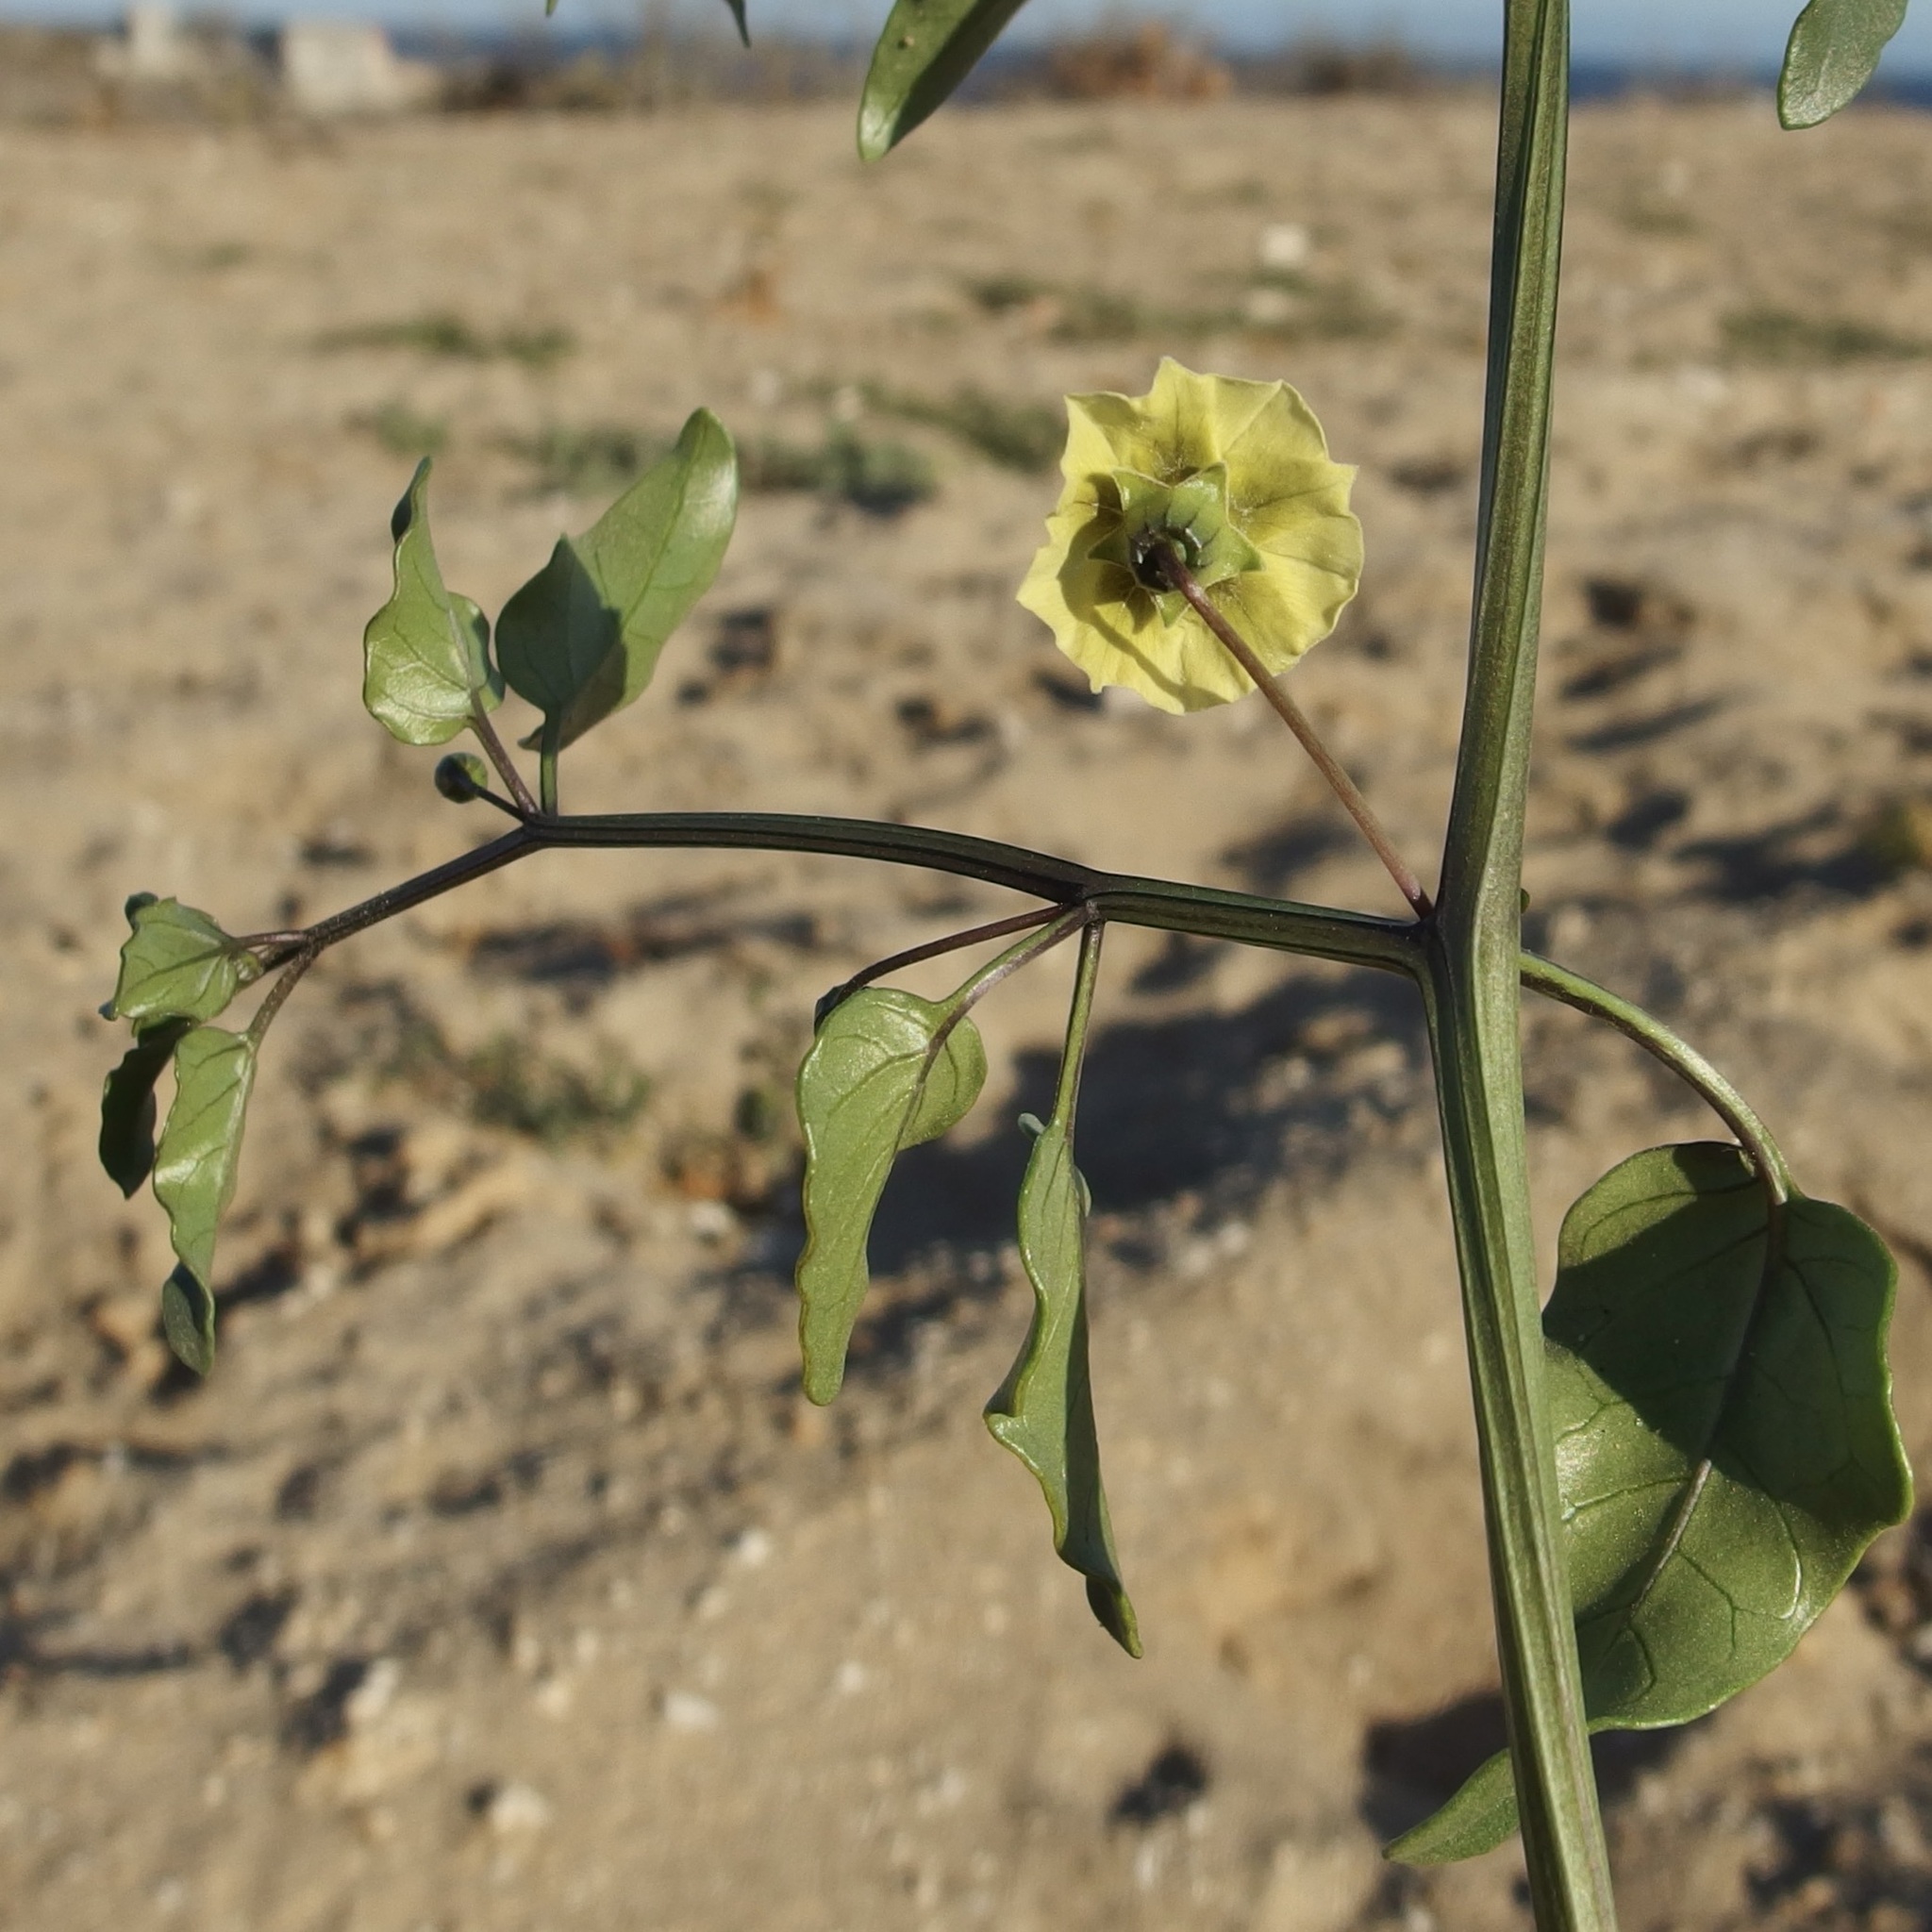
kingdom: Plantae
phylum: Tracheophyta
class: Magnoliopsida
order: Solanales
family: Solanaceae
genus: Physalis
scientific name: Physalis glabra
